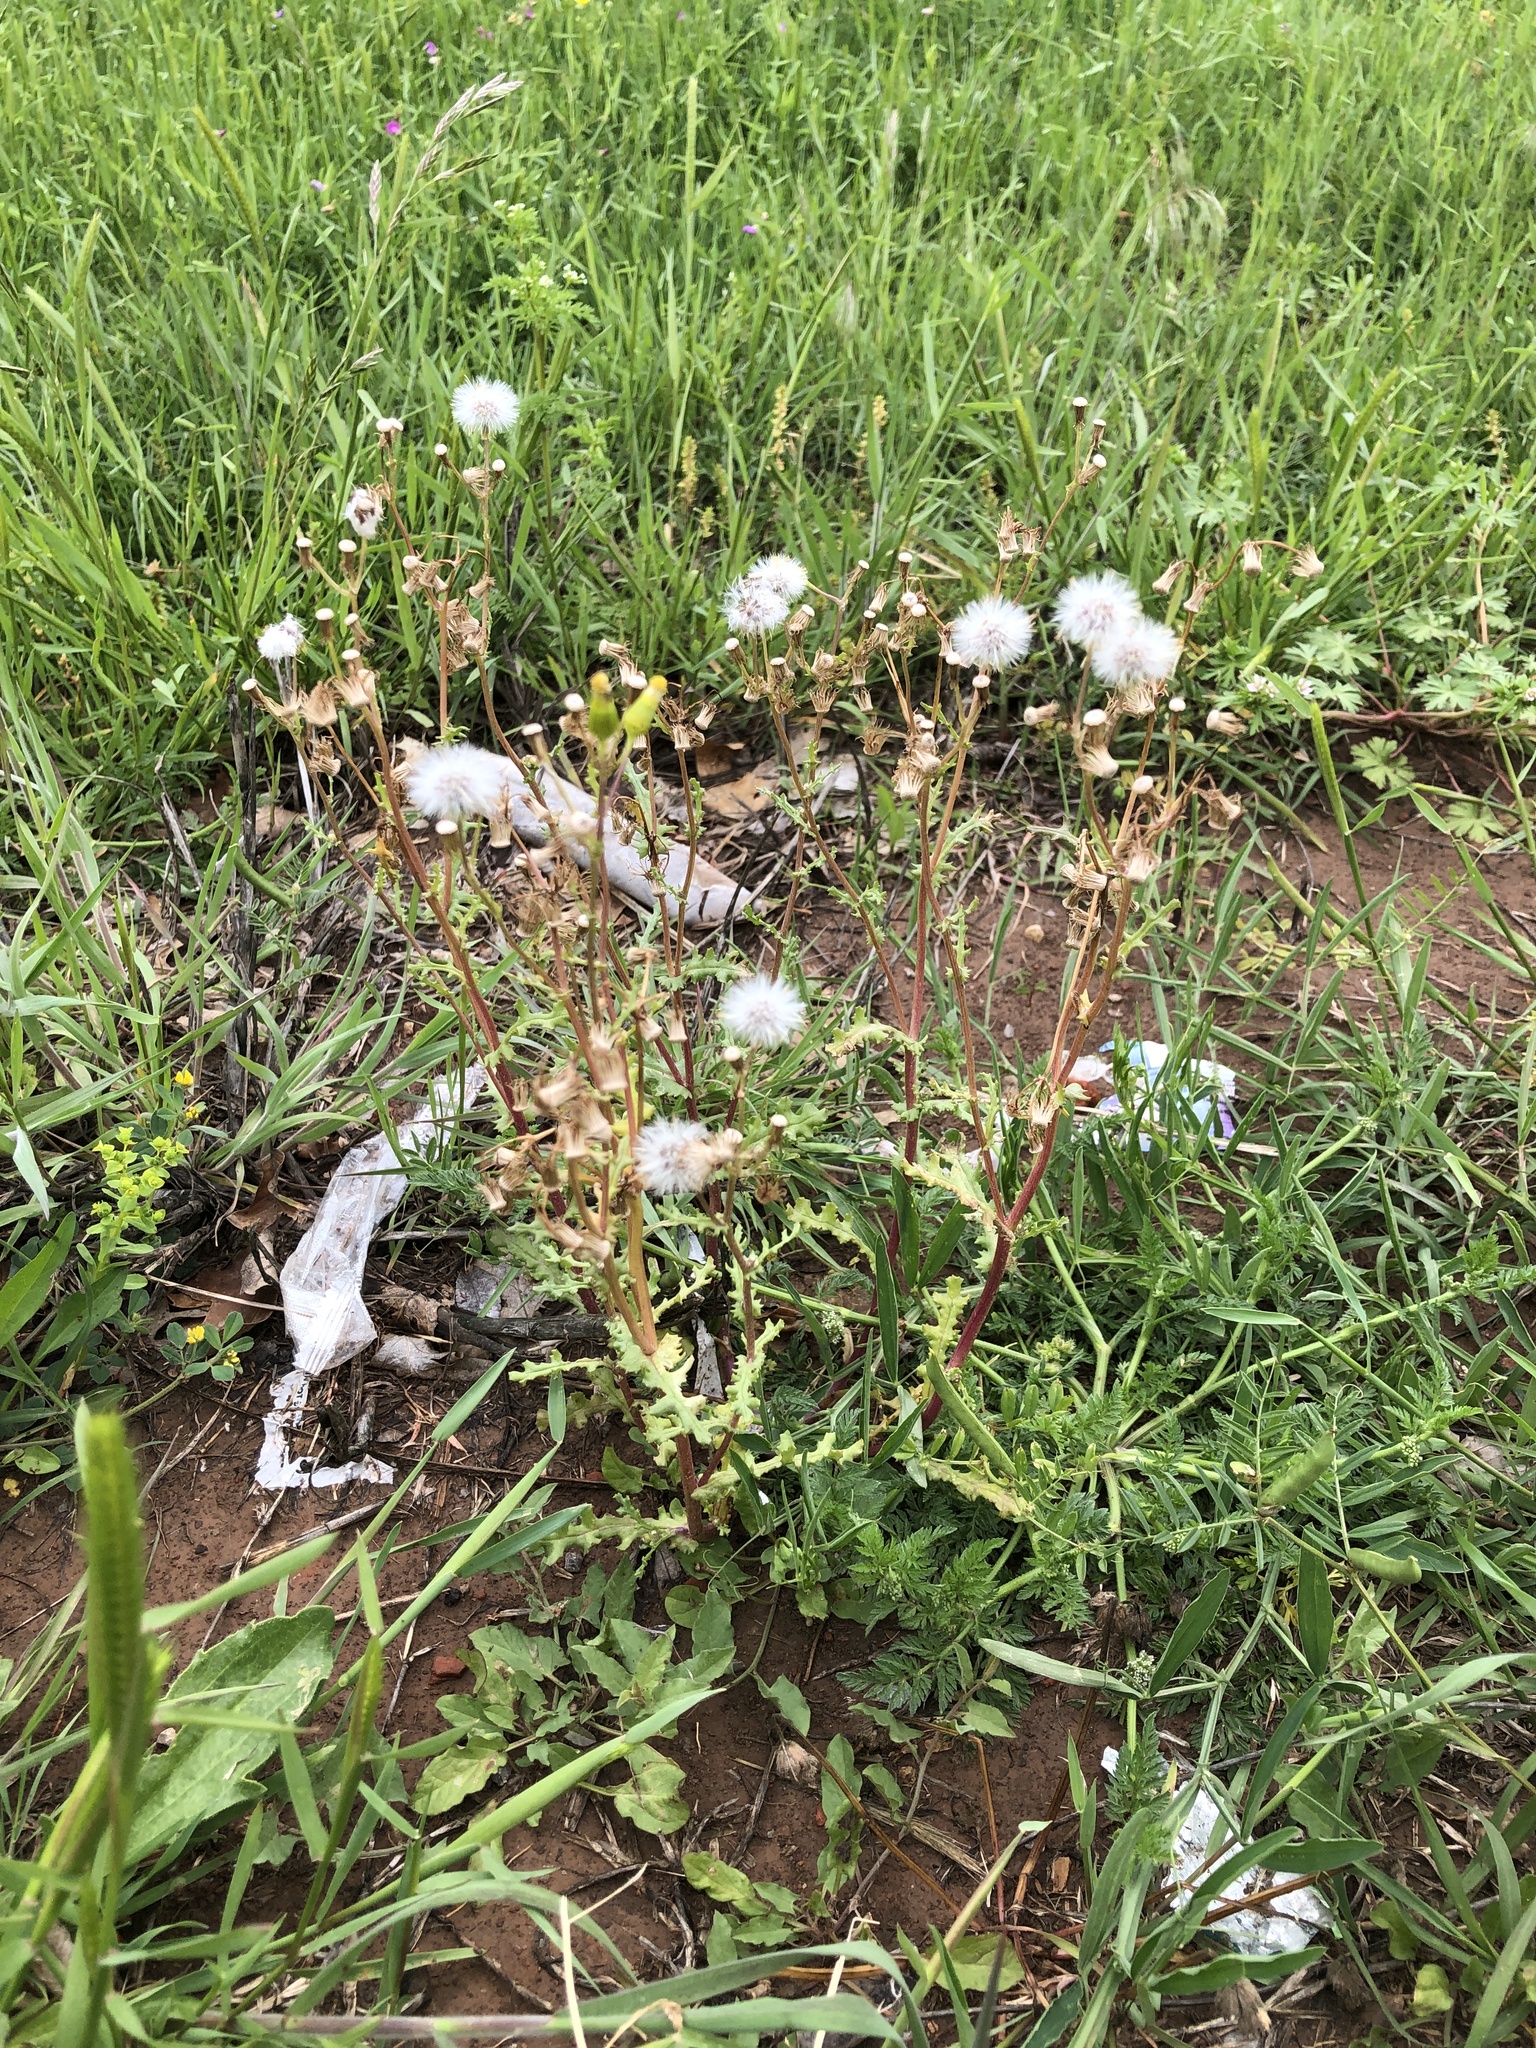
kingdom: Plantae
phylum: Tracheophyta
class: Magnoliopsida
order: Asterales
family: Asteraceae
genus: Senecio
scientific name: Senecio vulgaris
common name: Old-man-in-the-spring
